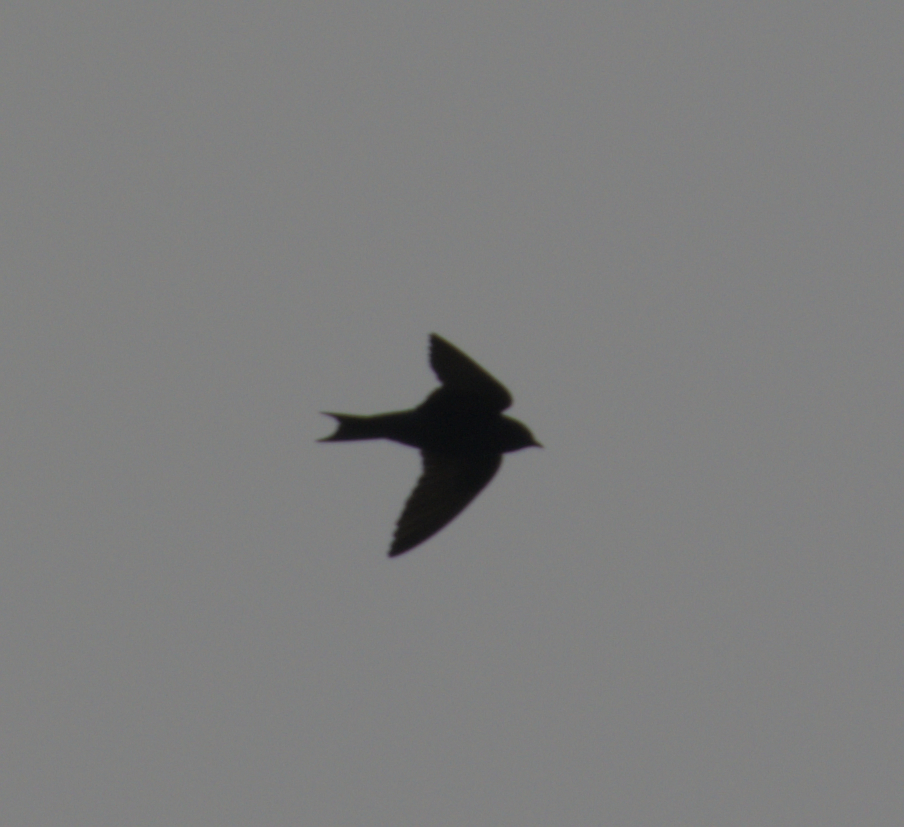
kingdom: Animalia
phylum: Chordata
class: Aves
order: Passeriformes
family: Hirundinidae
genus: Progne
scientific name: Progne subis
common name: Purple martin
